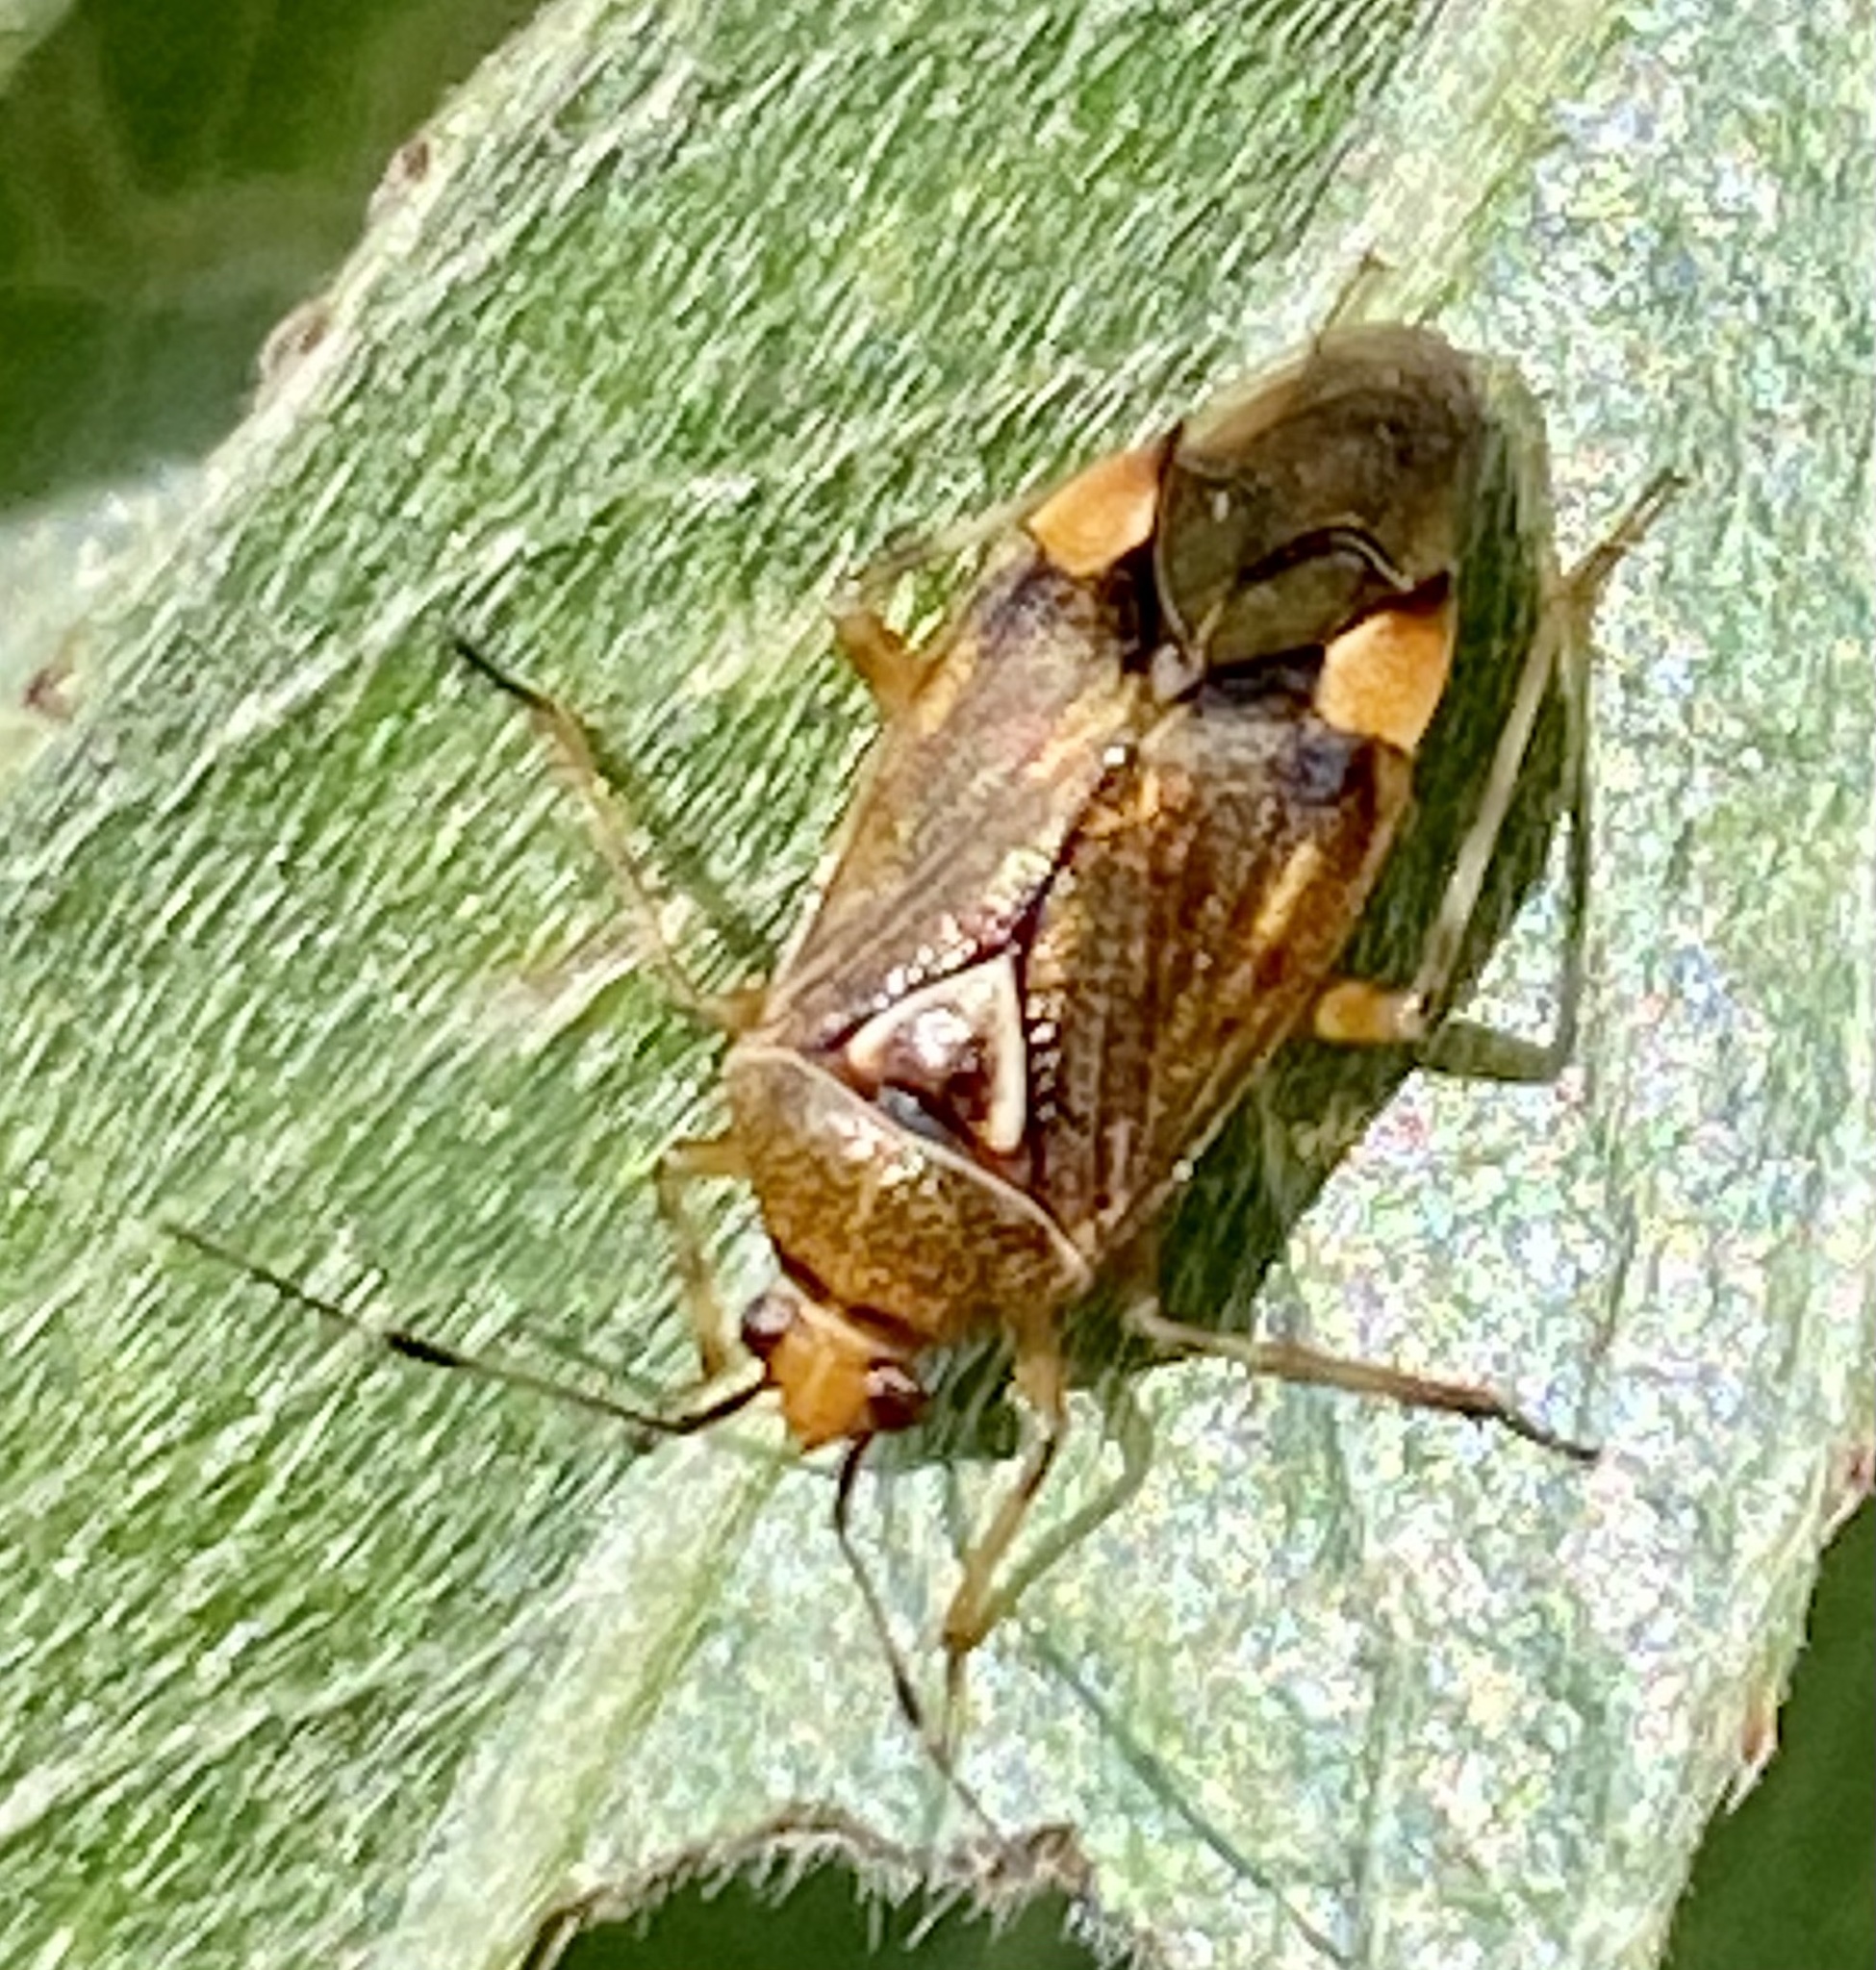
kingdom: Animalia
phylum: Arthropoda
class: Insecta
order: Hemiptera
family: Miridae
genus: Deraeocoris
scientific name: Deraeocoris flavilinea
